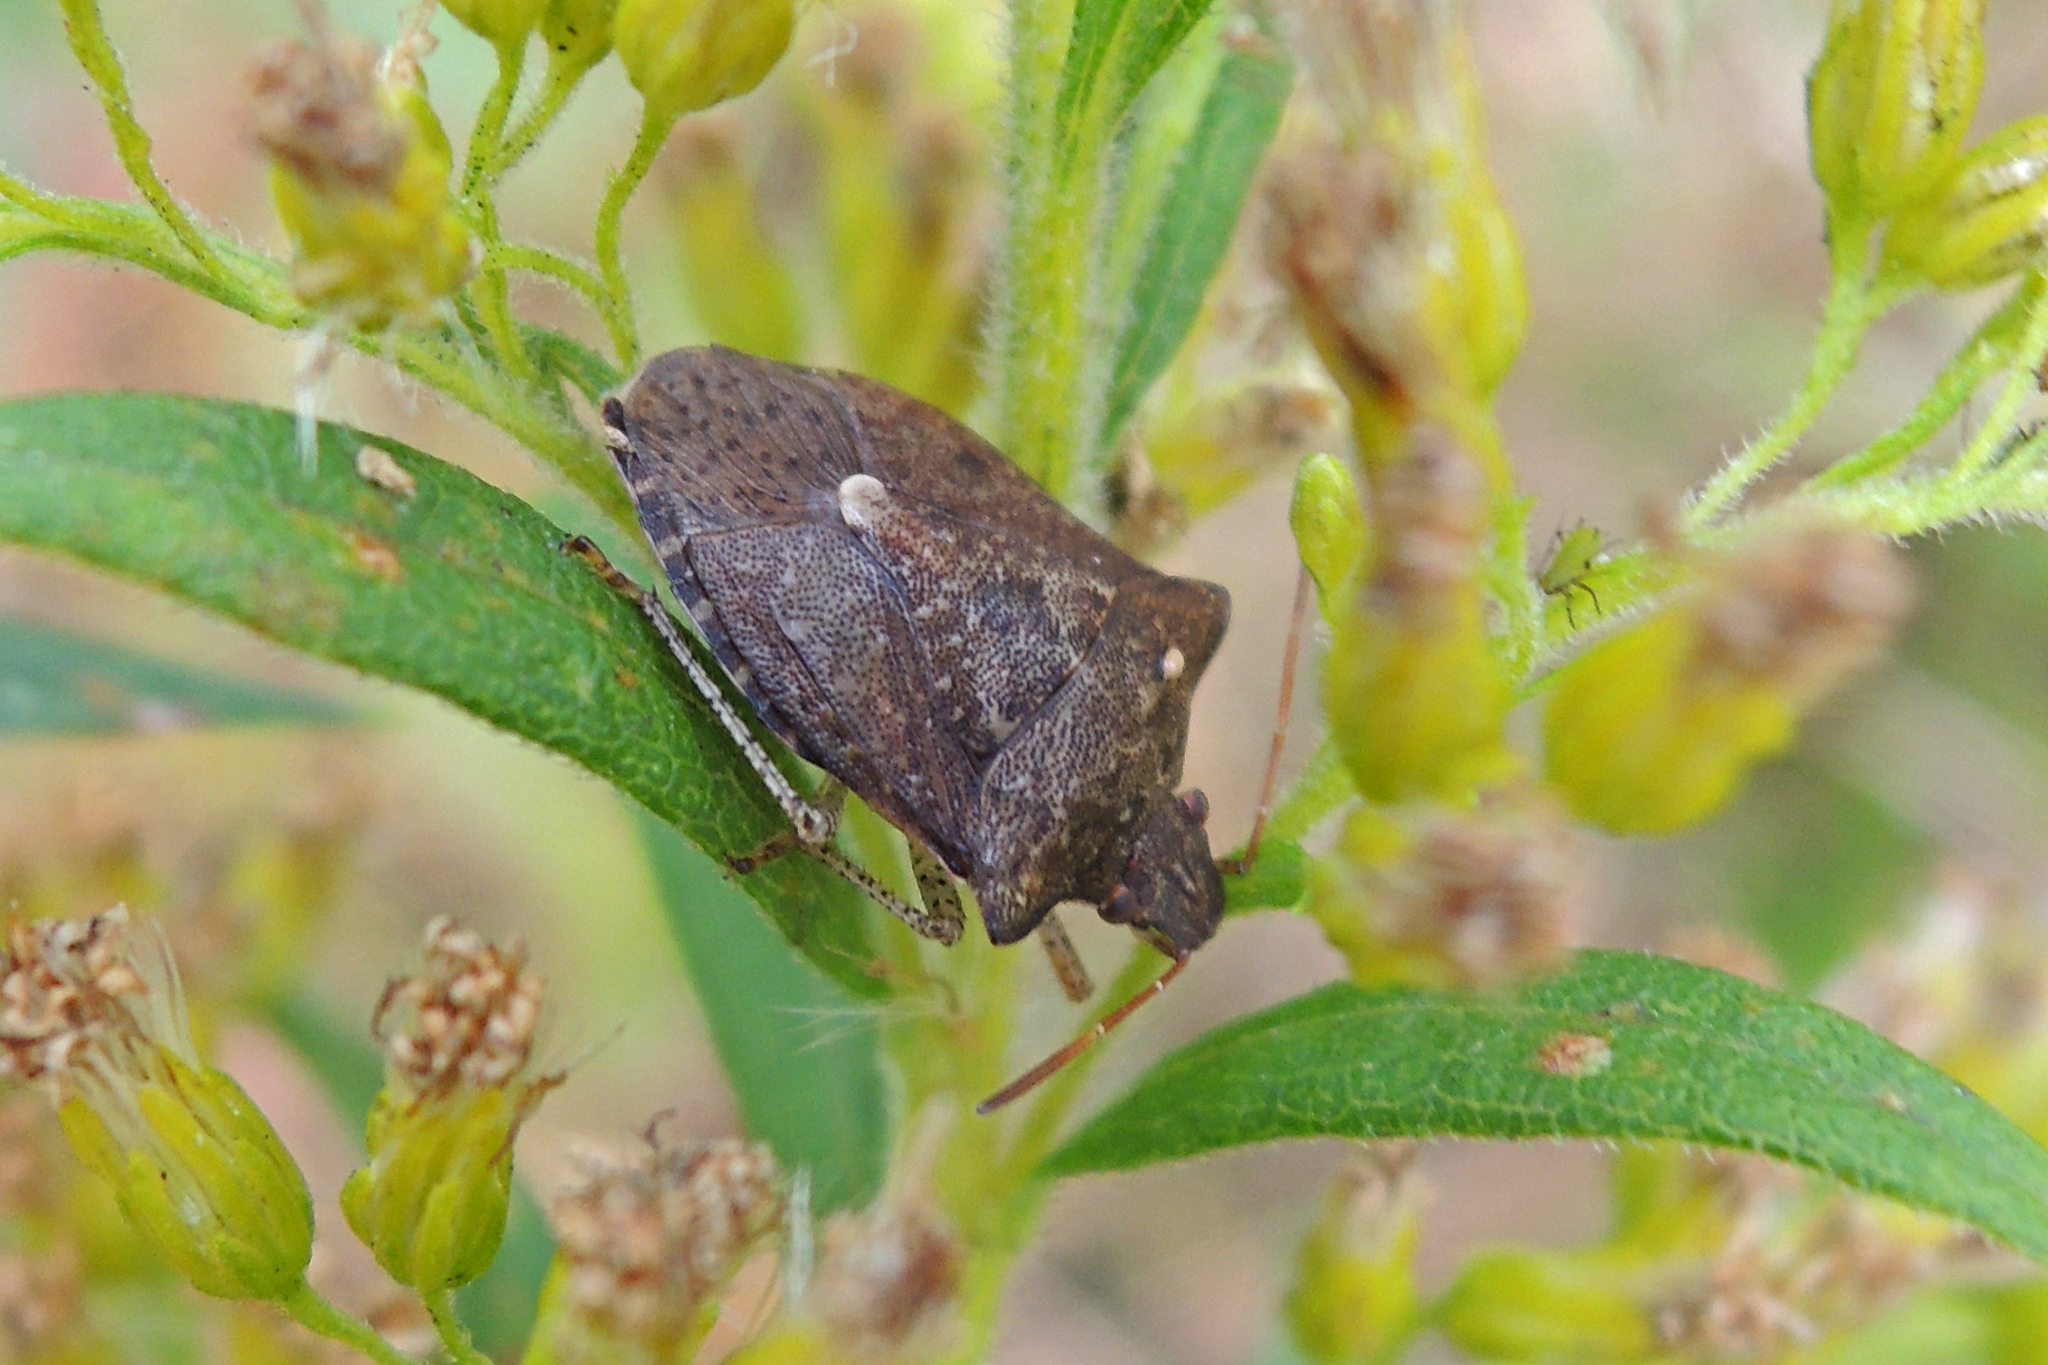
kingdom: Animalia
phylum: Arthropoda
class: Insecta
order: Hemiptera
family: Pentatomidae
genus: Euschistus
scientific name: Euschistus tristigmus
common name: Dusky stink bug
